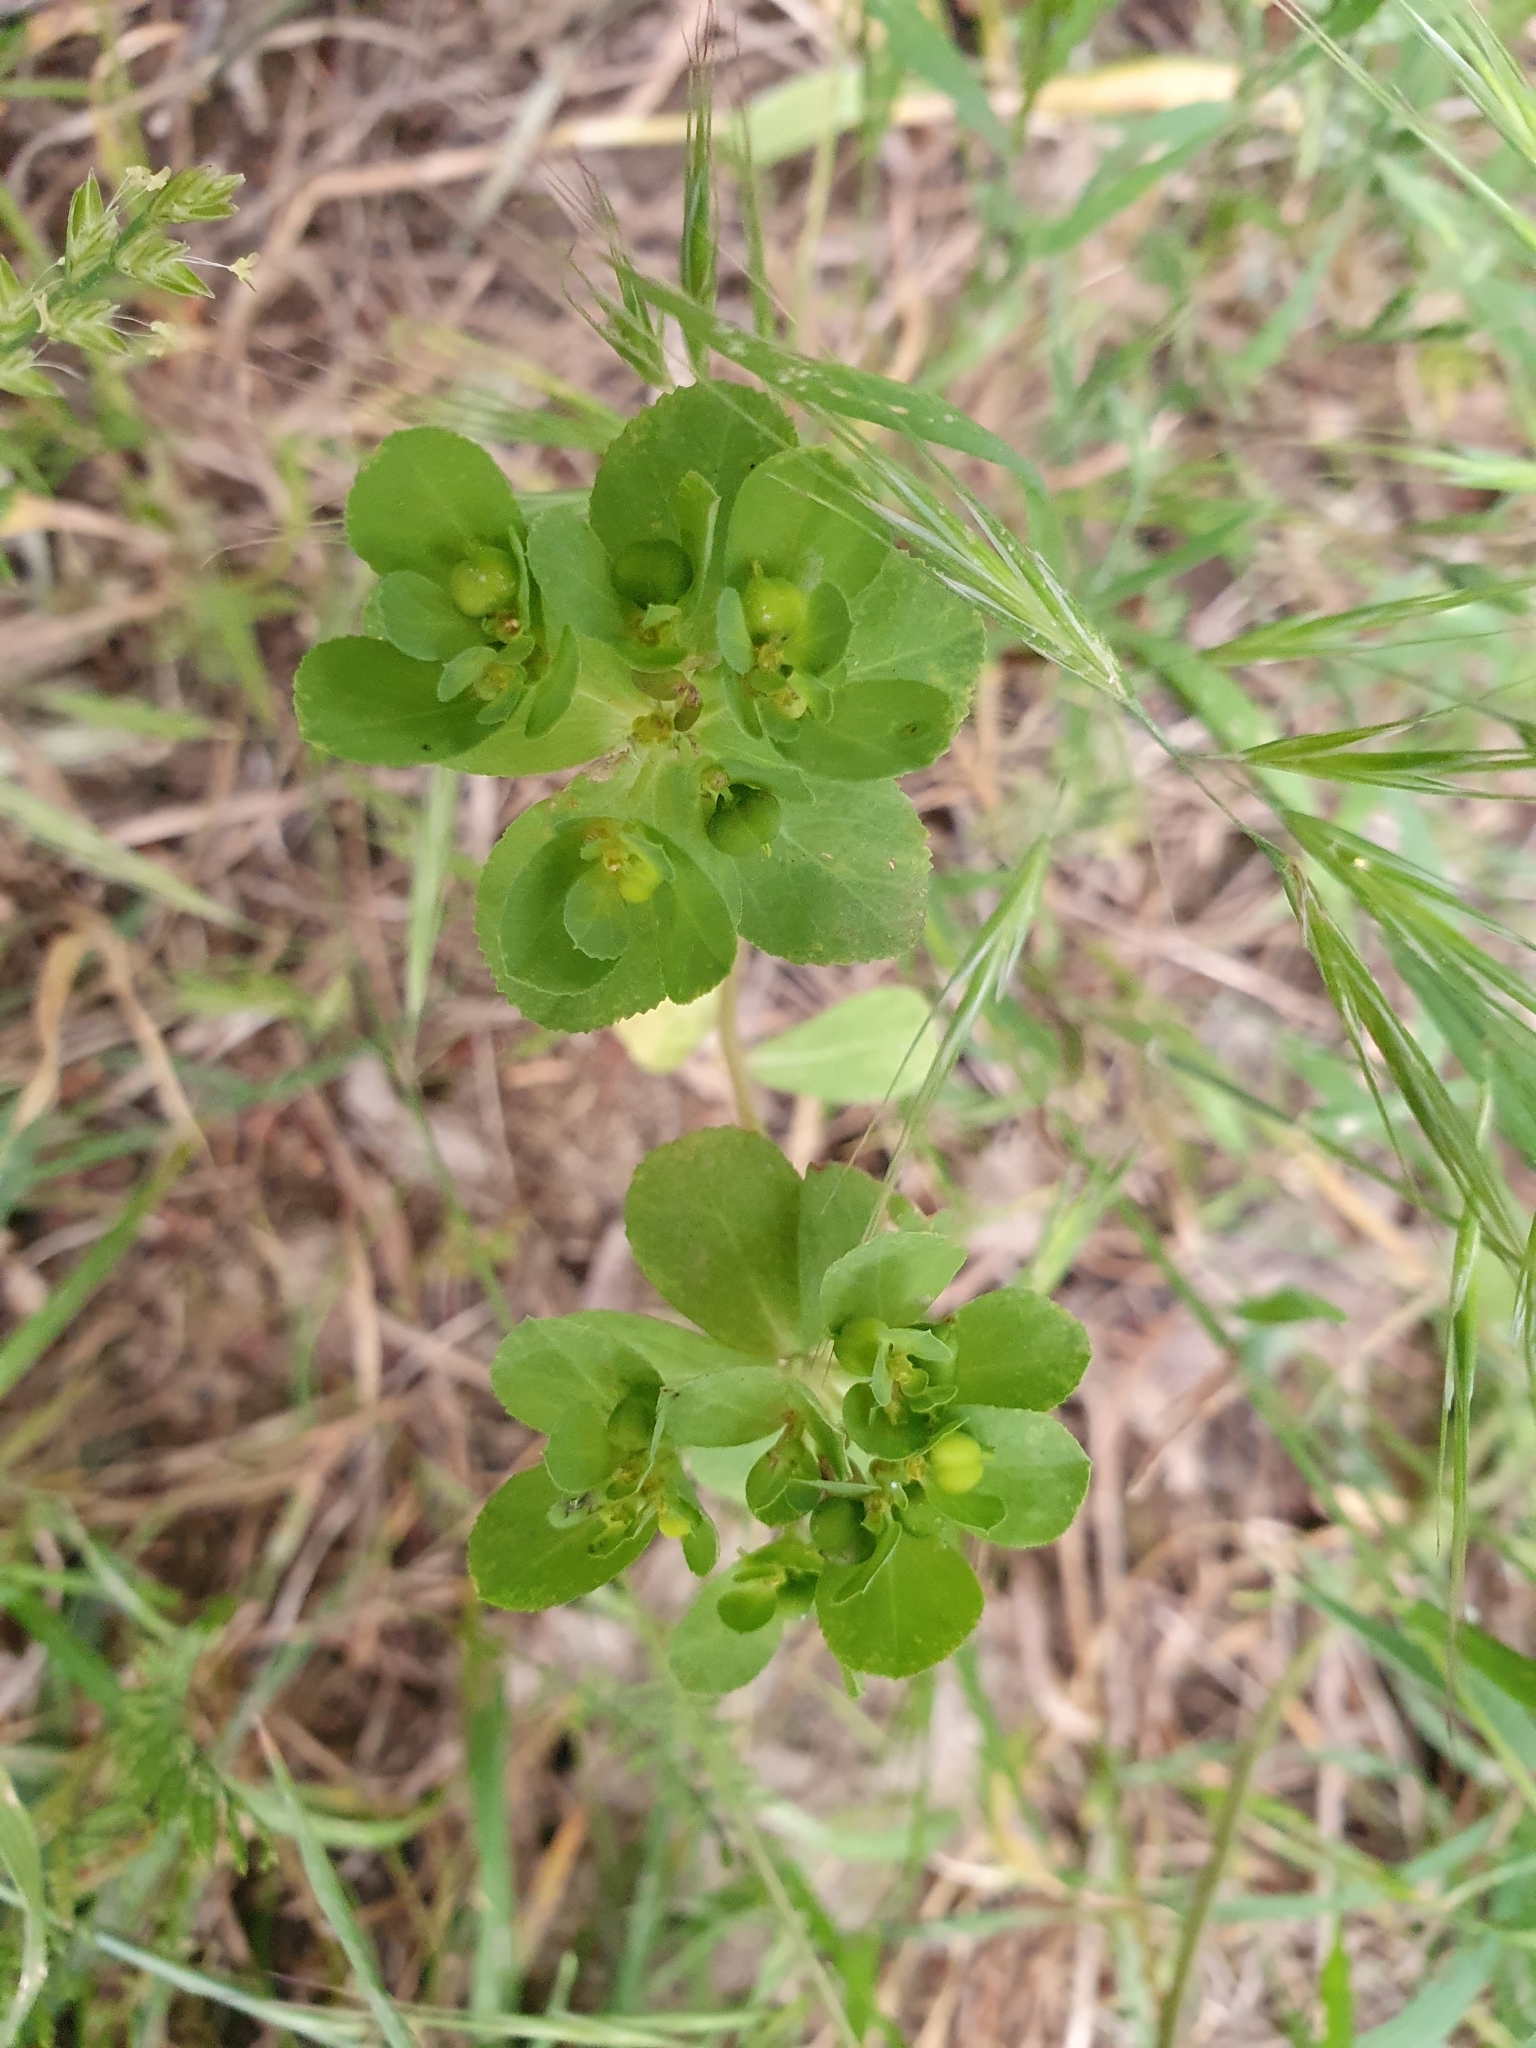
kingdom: Plantae
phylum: Tracheophyta
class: Magnoliopsida
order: Malpighiales
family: Euphorbiaceae
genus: Euphorbia
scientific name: Euphorbia helioscopia
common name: Sun spurge
